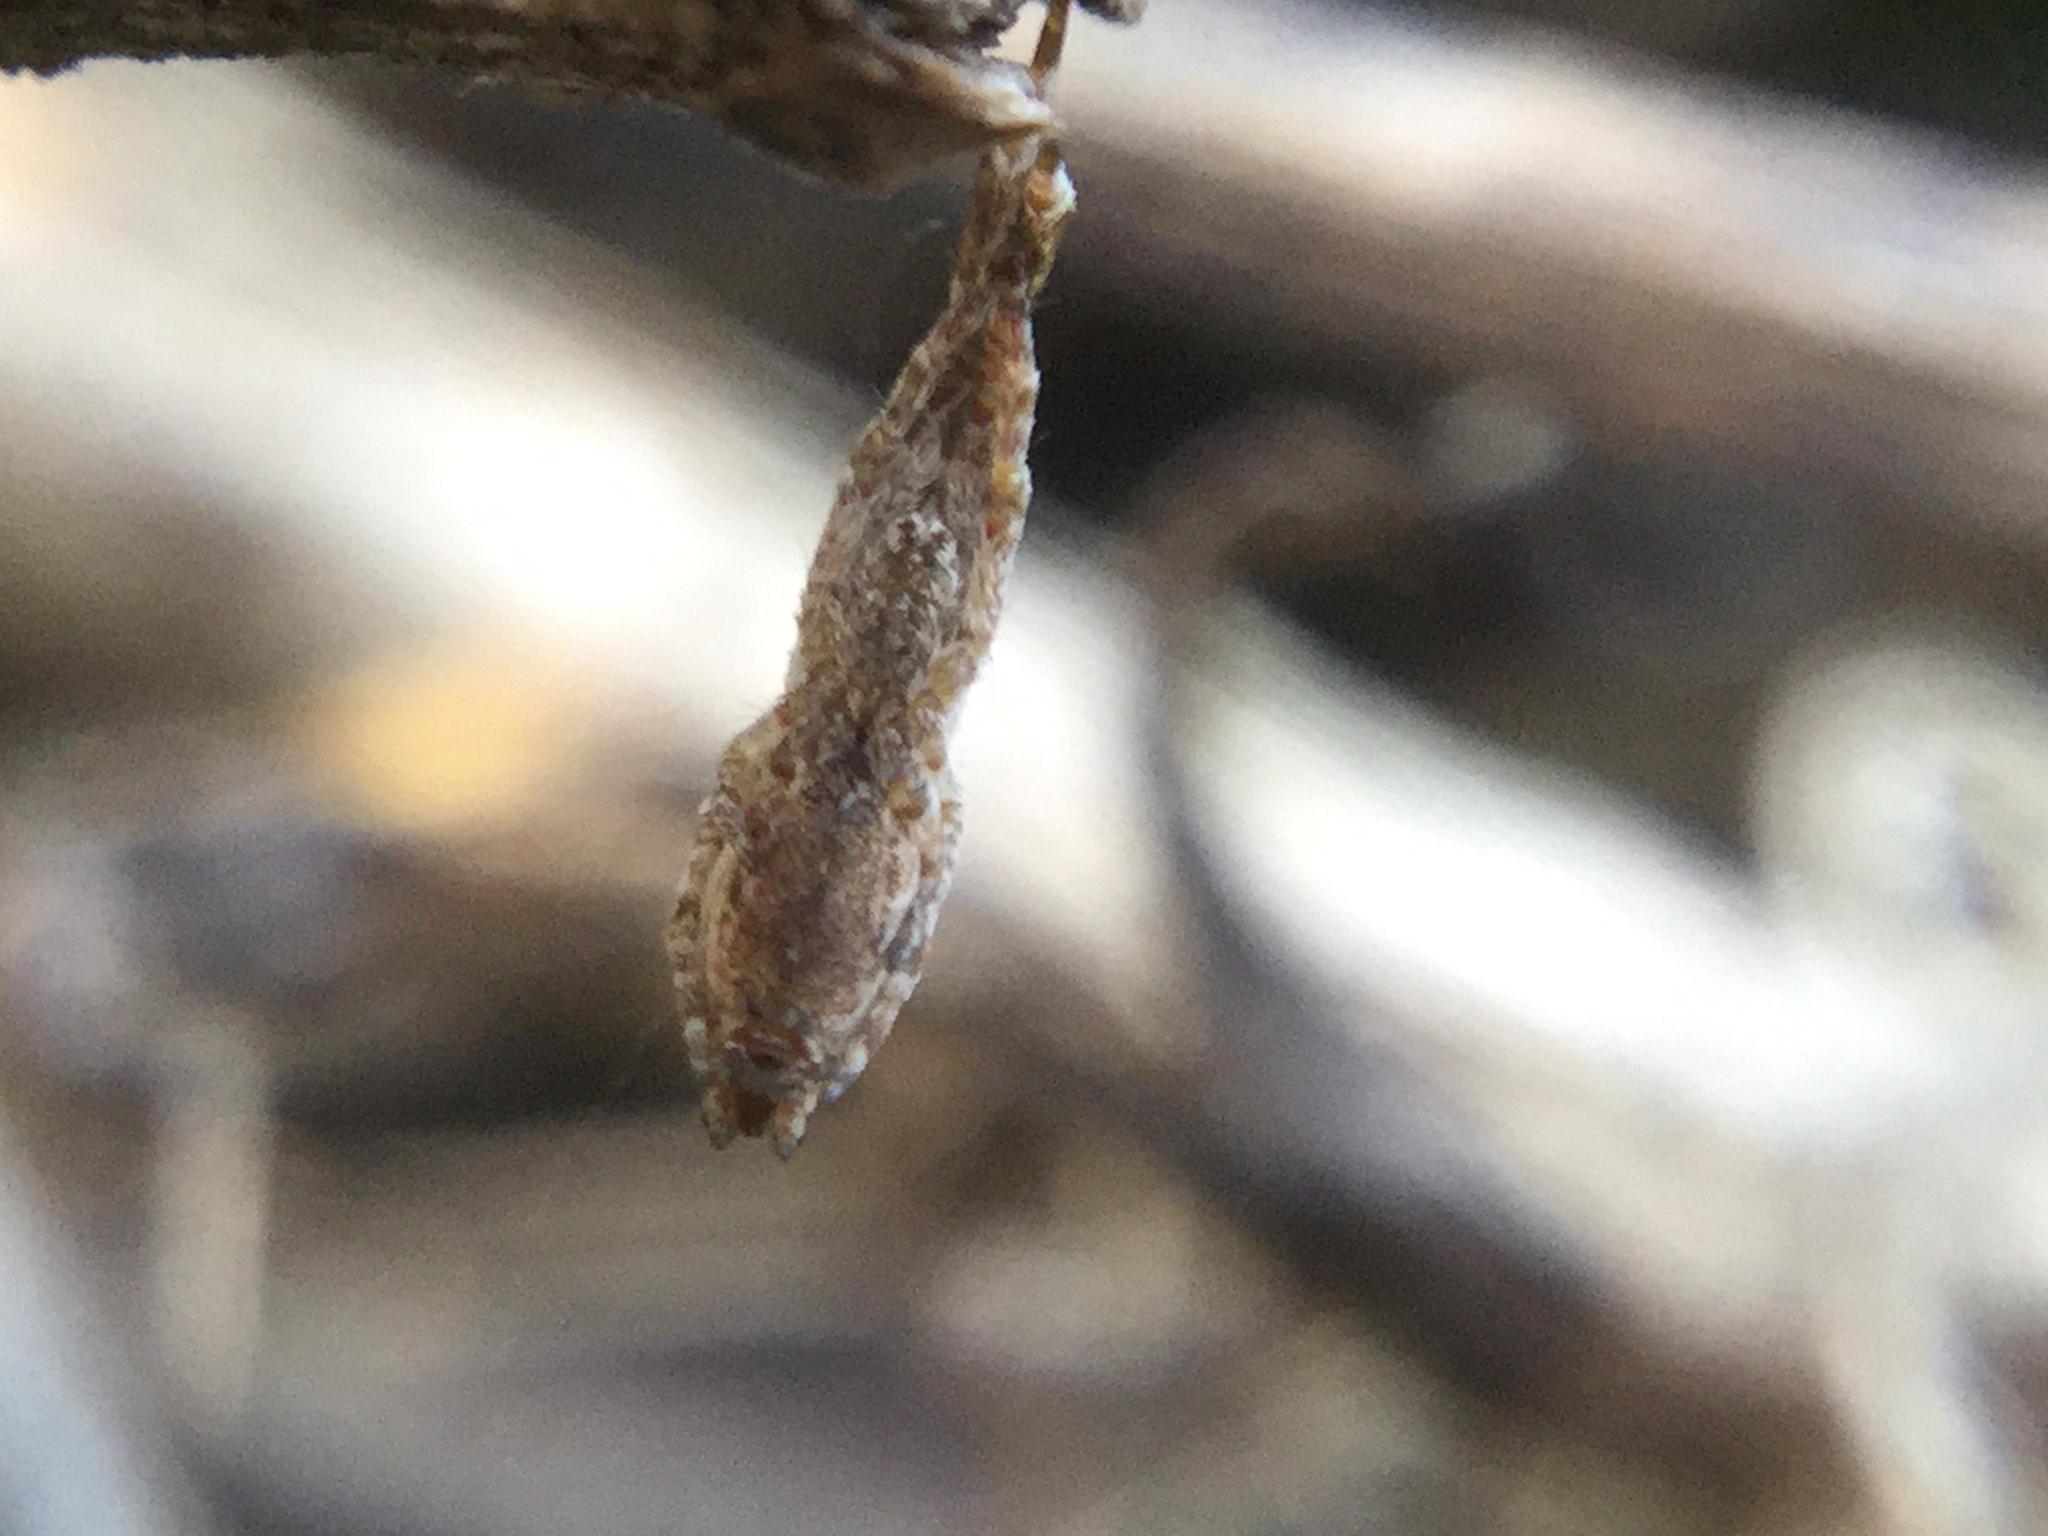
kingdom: Animalia
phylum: Arthropoda
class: Arachnida
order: Araneae
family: Uloboridae
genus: Uloborus
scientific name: Uloborus glomosus
